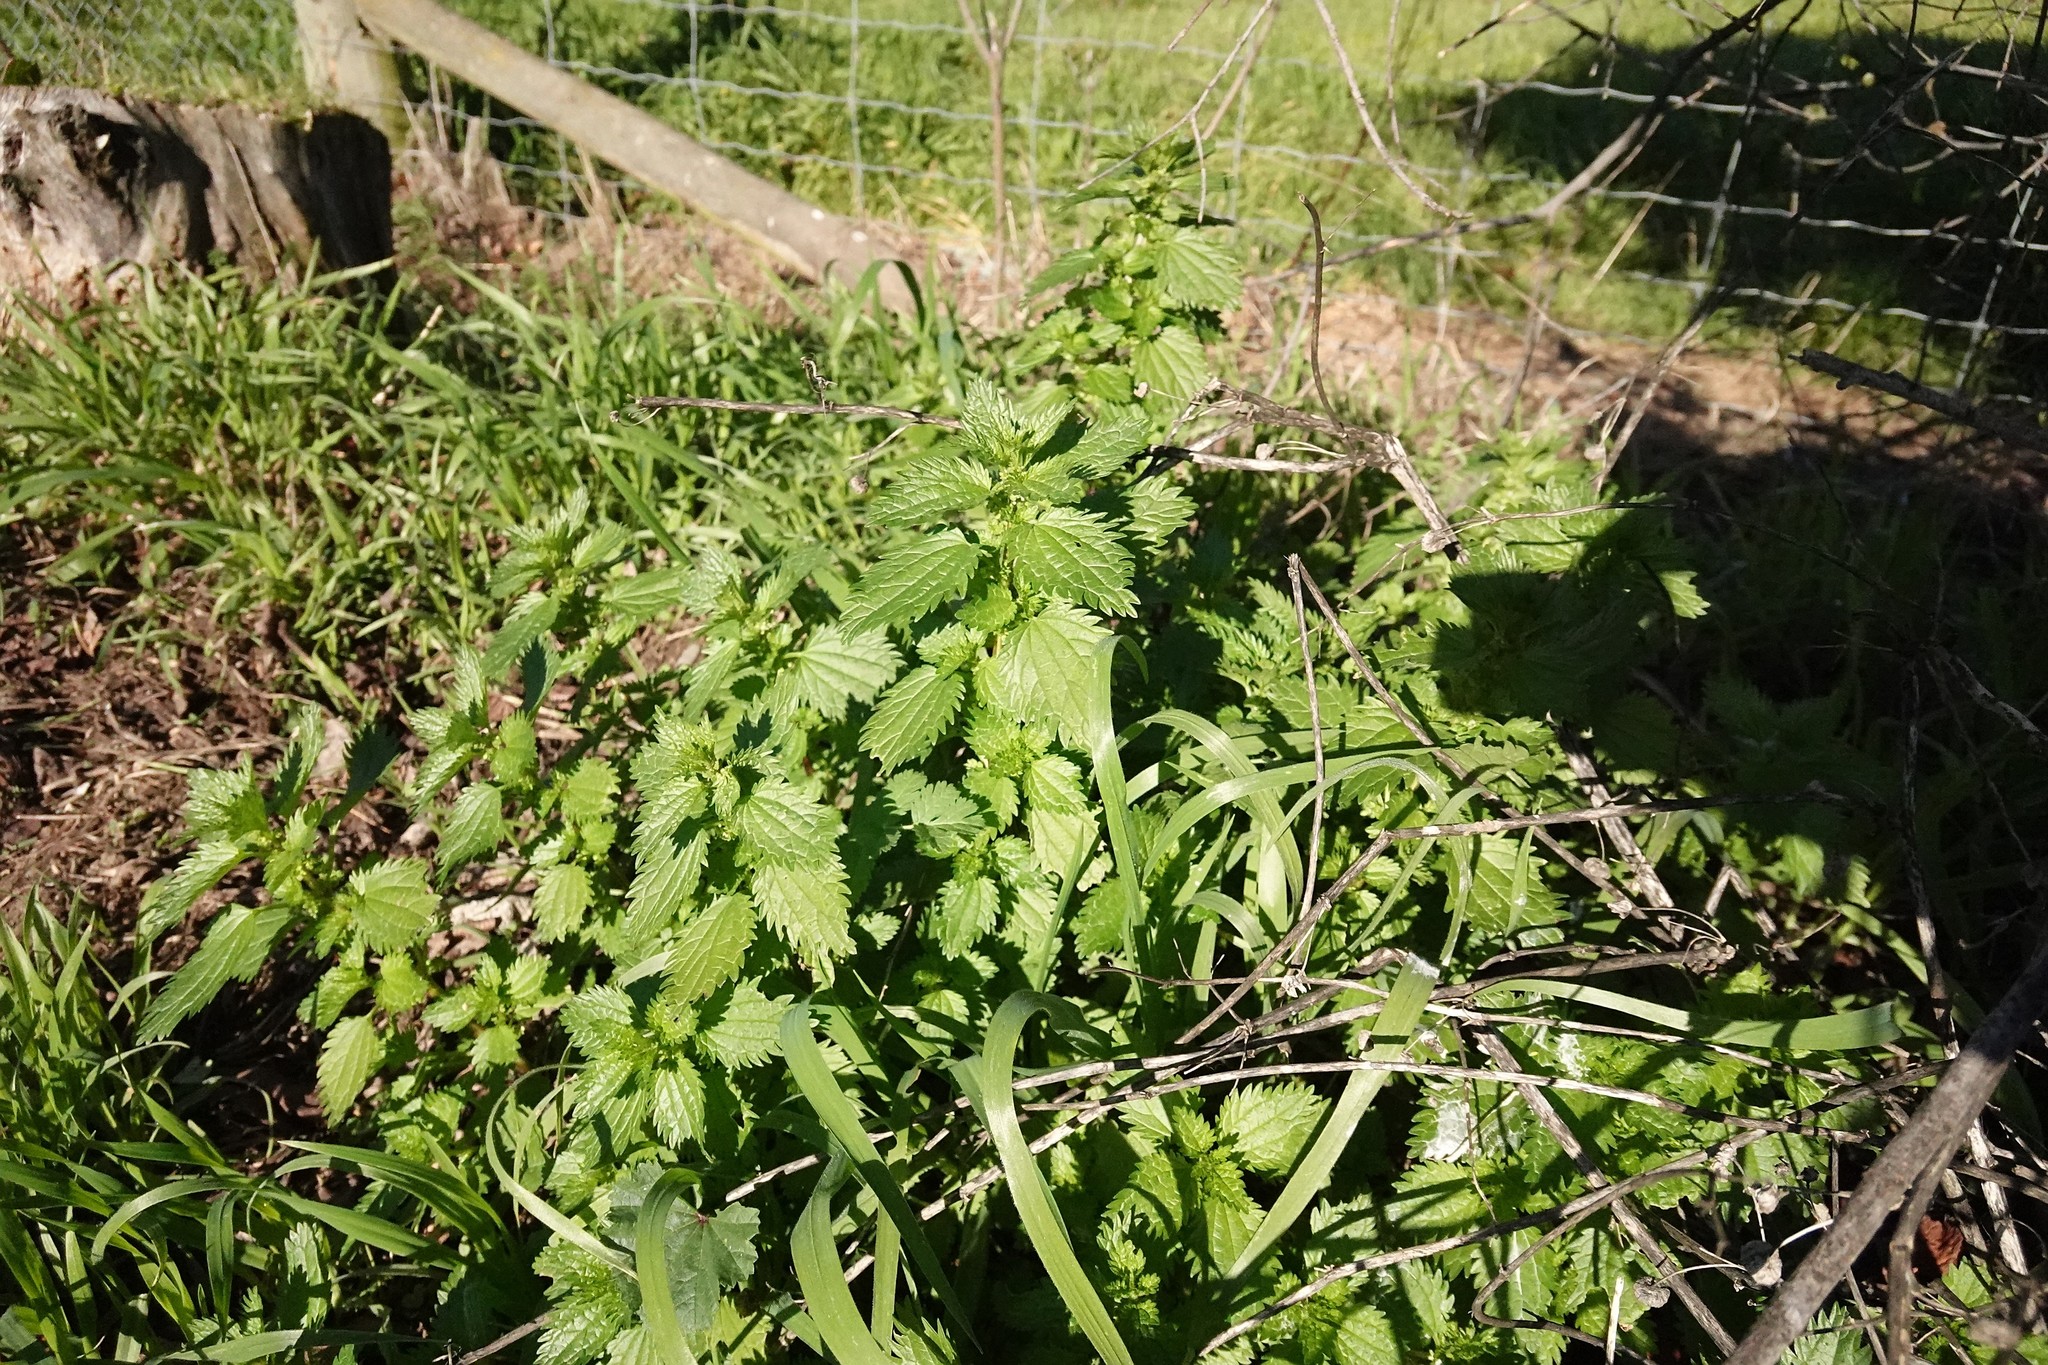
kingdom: Plantae
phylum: Tracheophyta
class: Magnoliopsida
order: Rosales
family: Urticaceae
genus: Urtica
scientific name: Urtica urens
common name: Dwarf nettle
